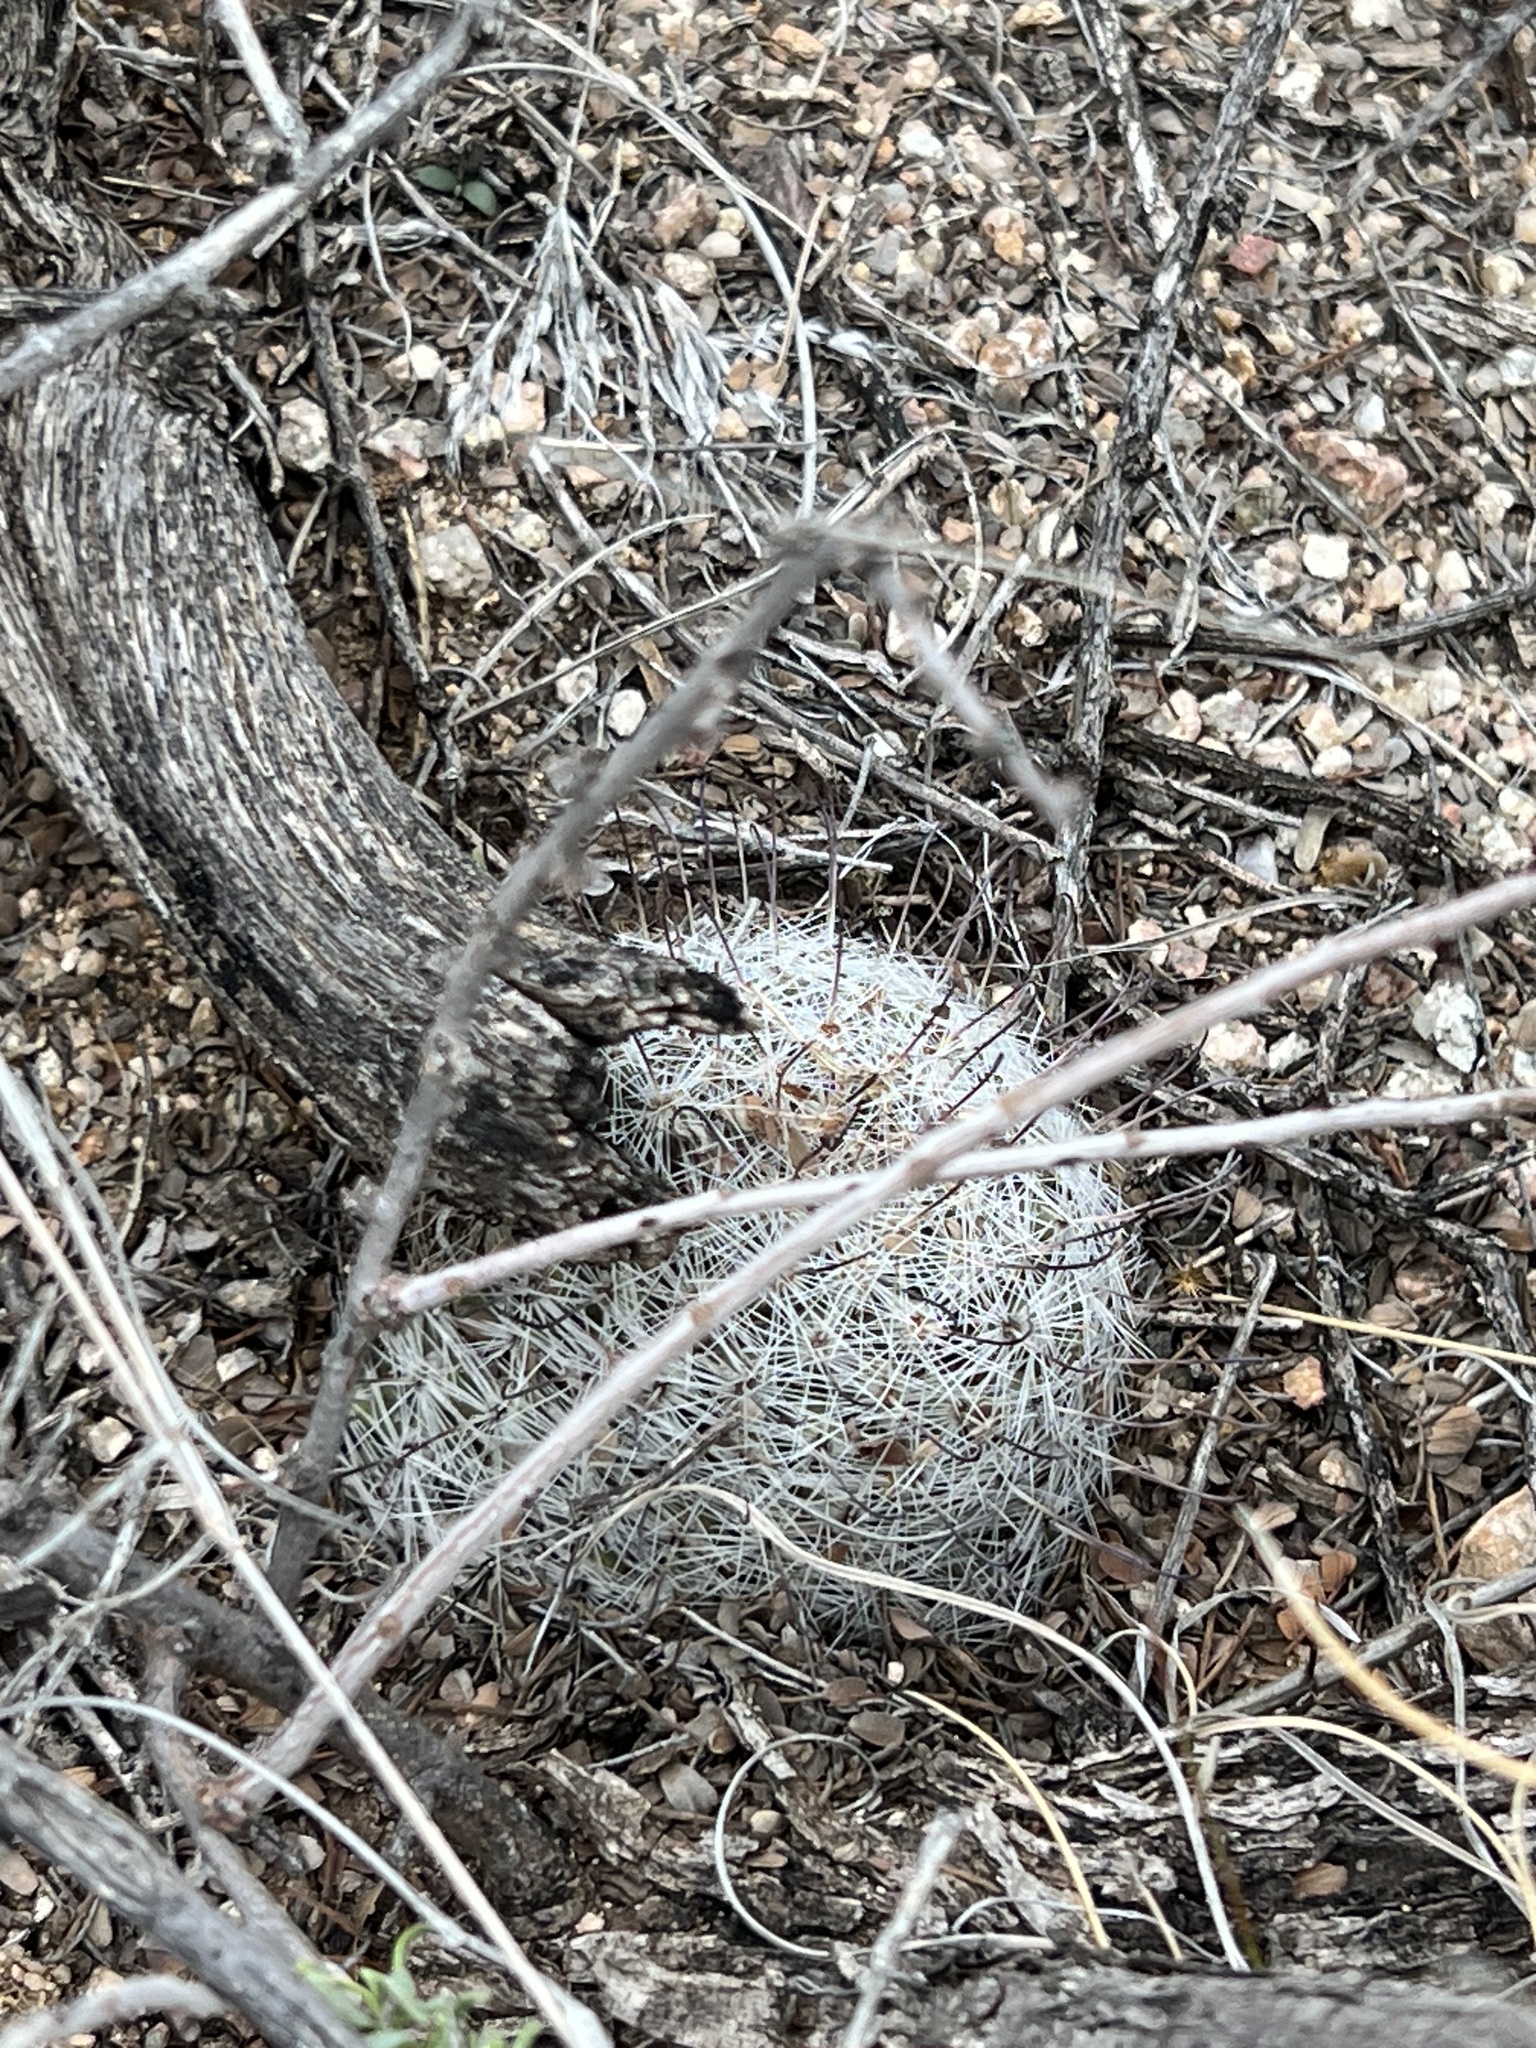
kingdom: Plantae
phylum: Tracheophyta
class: Magnoliopsida
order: Caryophyllales
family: Cactaceae
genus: Cochemiea
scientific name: Cochemiea grahamii
